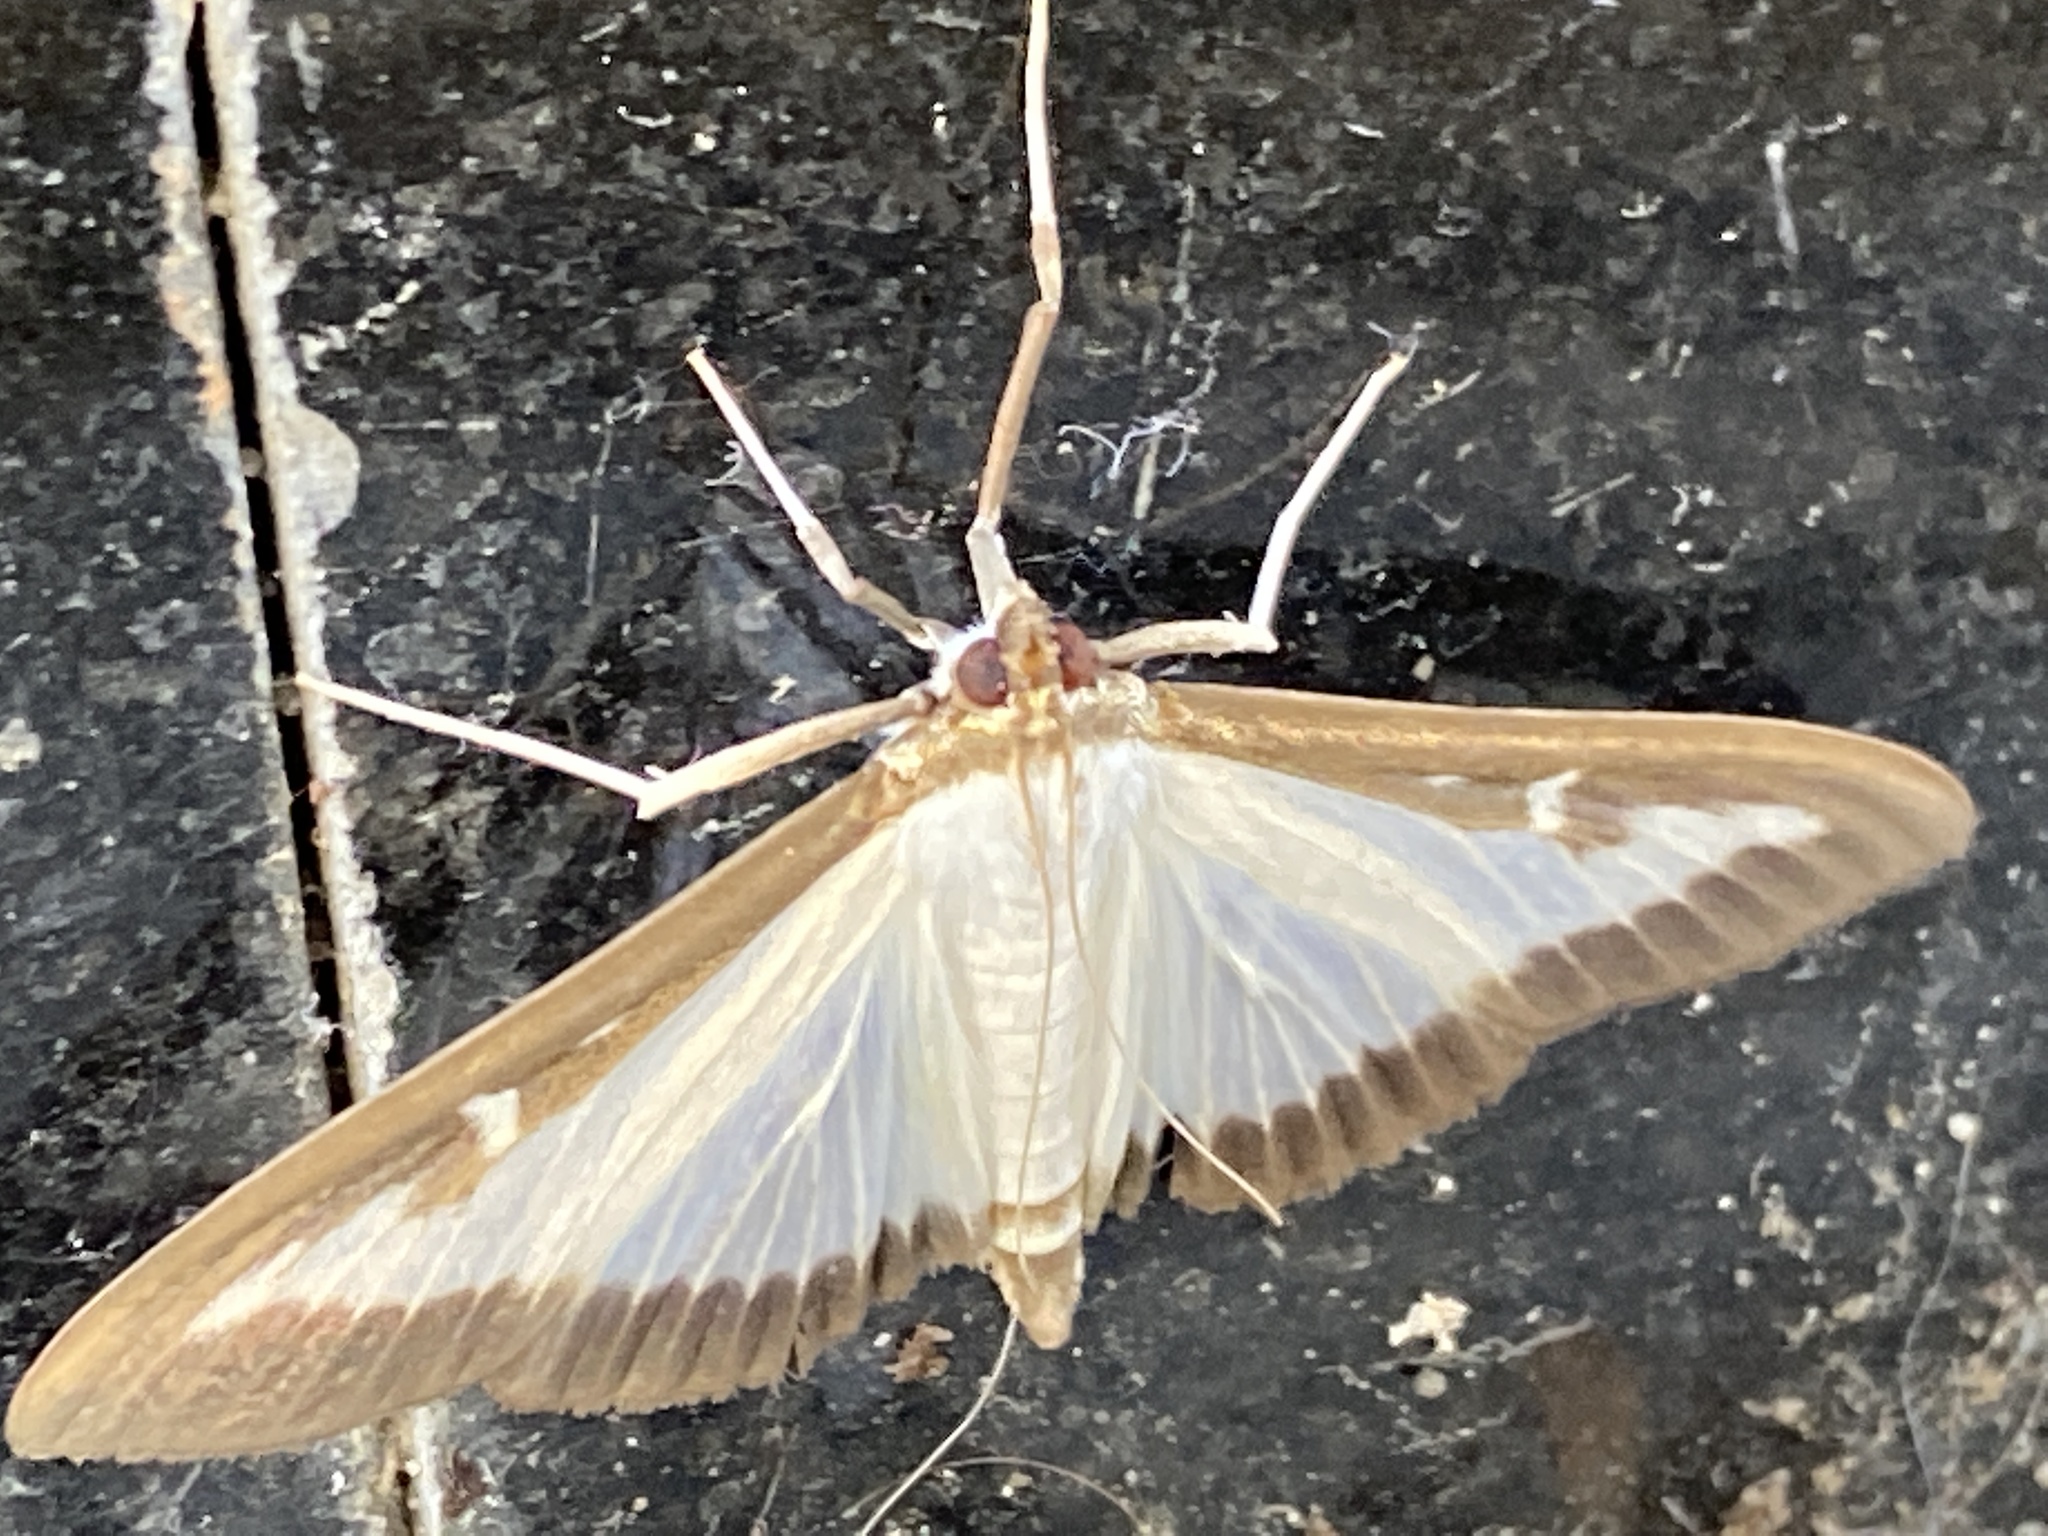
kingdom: Animalia
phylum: Arthropoda
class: Insecta
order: Lepidoptera
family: Crambidae
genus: Cydalima
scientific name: Cydalima perspectalis
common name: Box tree moth
